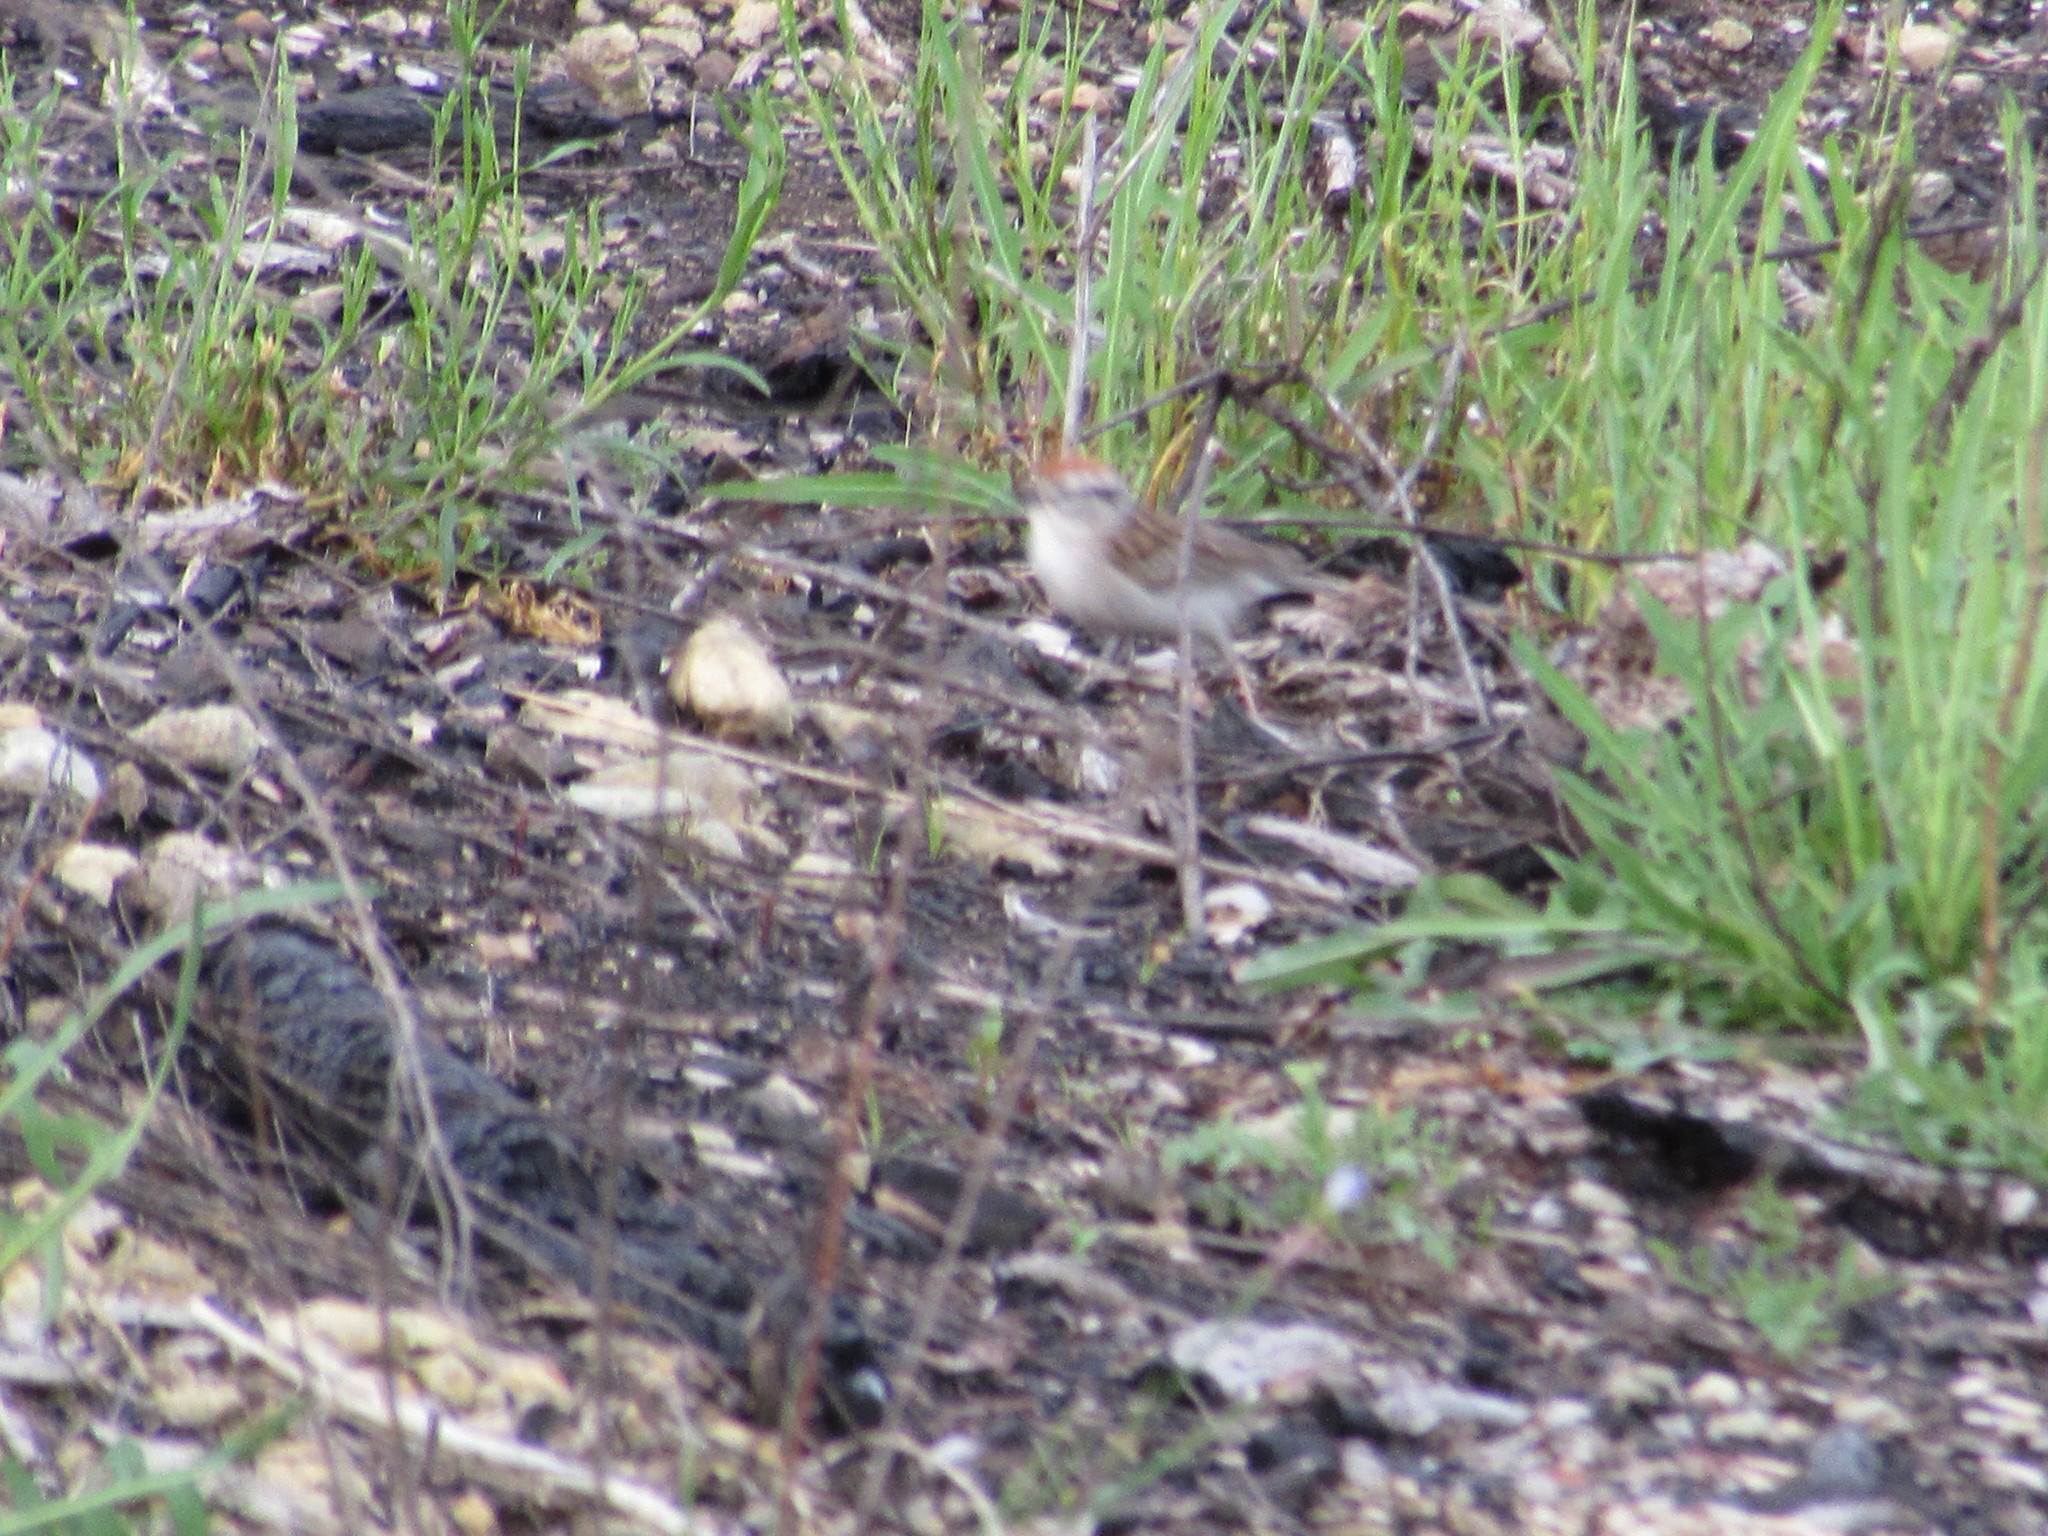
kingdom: Animalia
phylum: Chordata
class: Aves
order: Passeriformes
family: Passerellidae
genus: Spizella
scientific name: Spizella passerina
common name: Chipping sparrow
